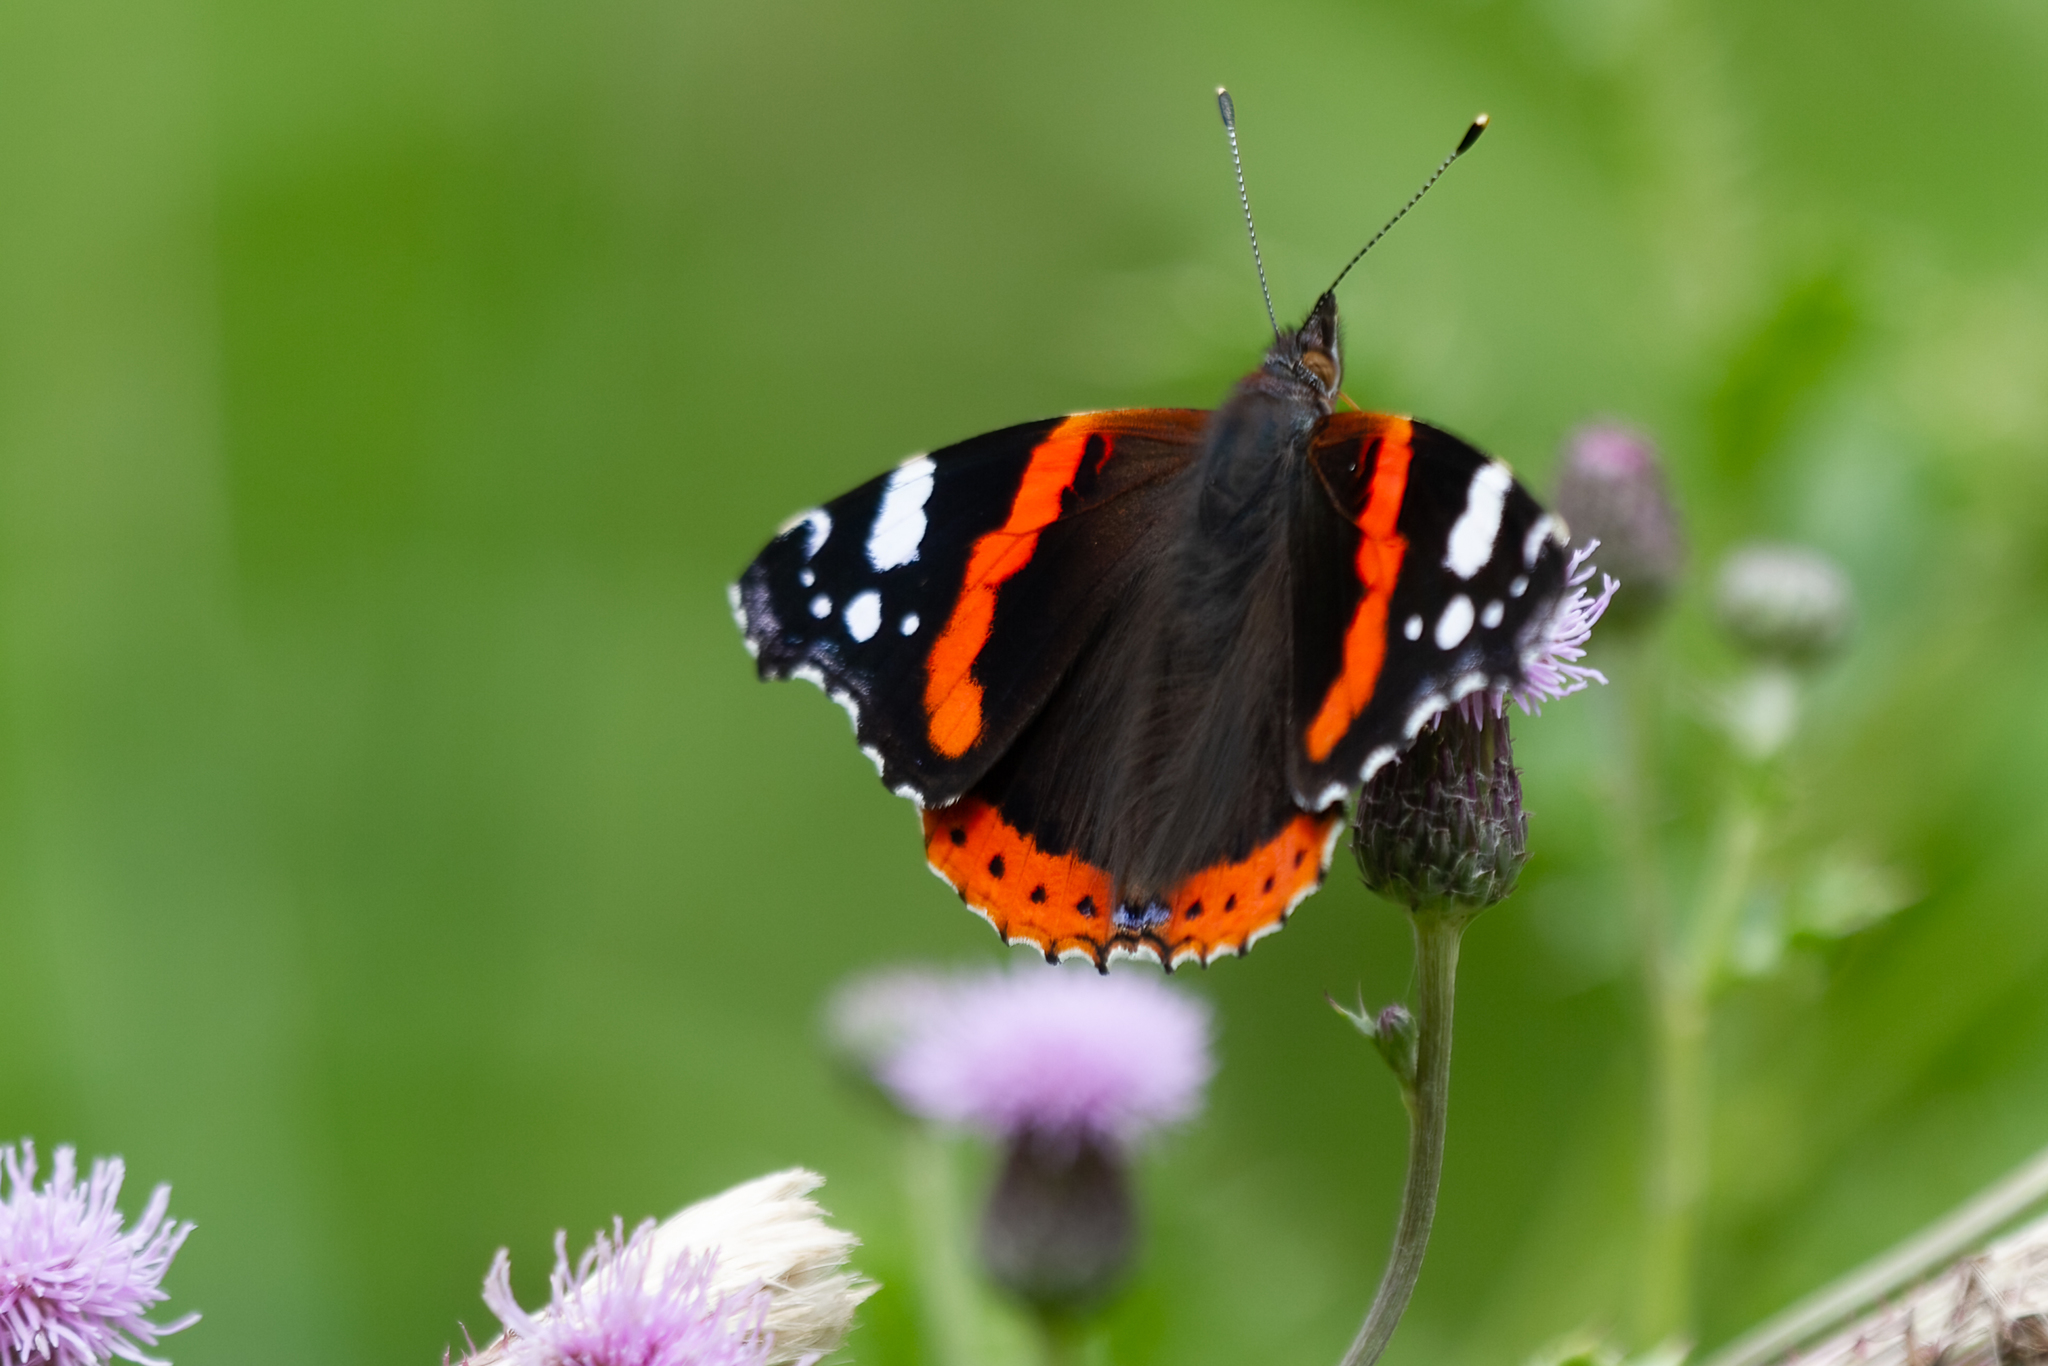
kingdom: Animalia
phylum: Arthropoda
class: Insecta
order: Lepidoptera
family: Nymphalidae
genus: Vanessa
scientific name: Vanessa atalanta
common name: Red admiral
